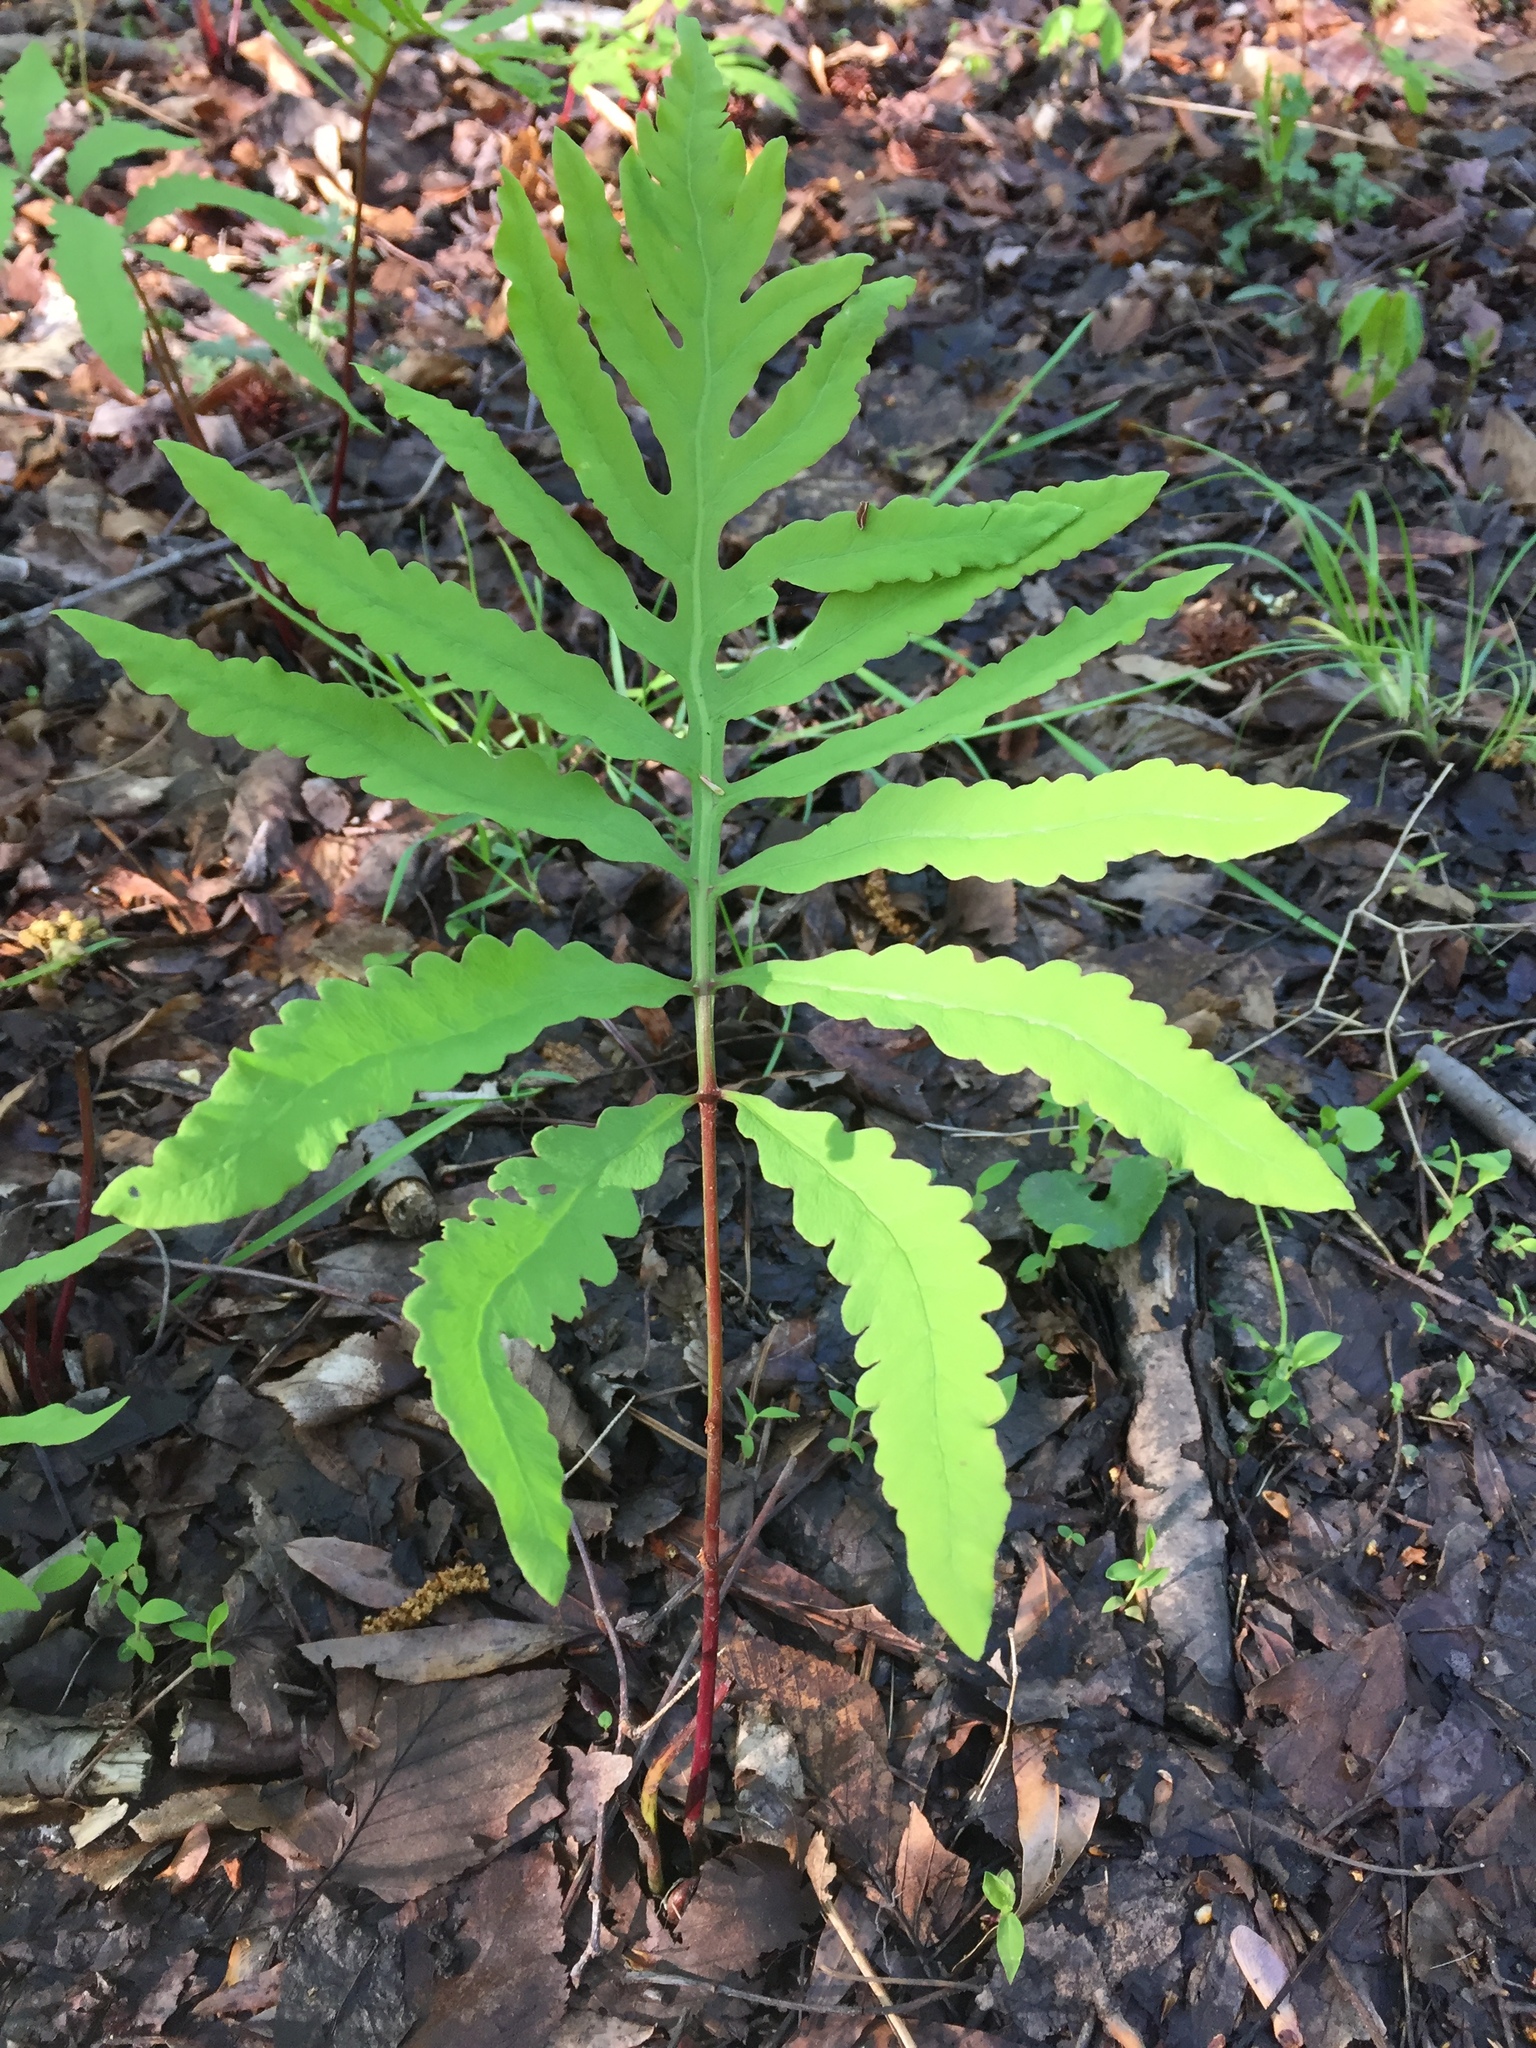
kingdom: Plantae
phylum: Tracheophyta
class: Polypodiopsida
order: Polypodiales
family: Onocleaceae
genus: Onoclea
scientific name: Onoclea sensibilis
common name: Sensitive fern
